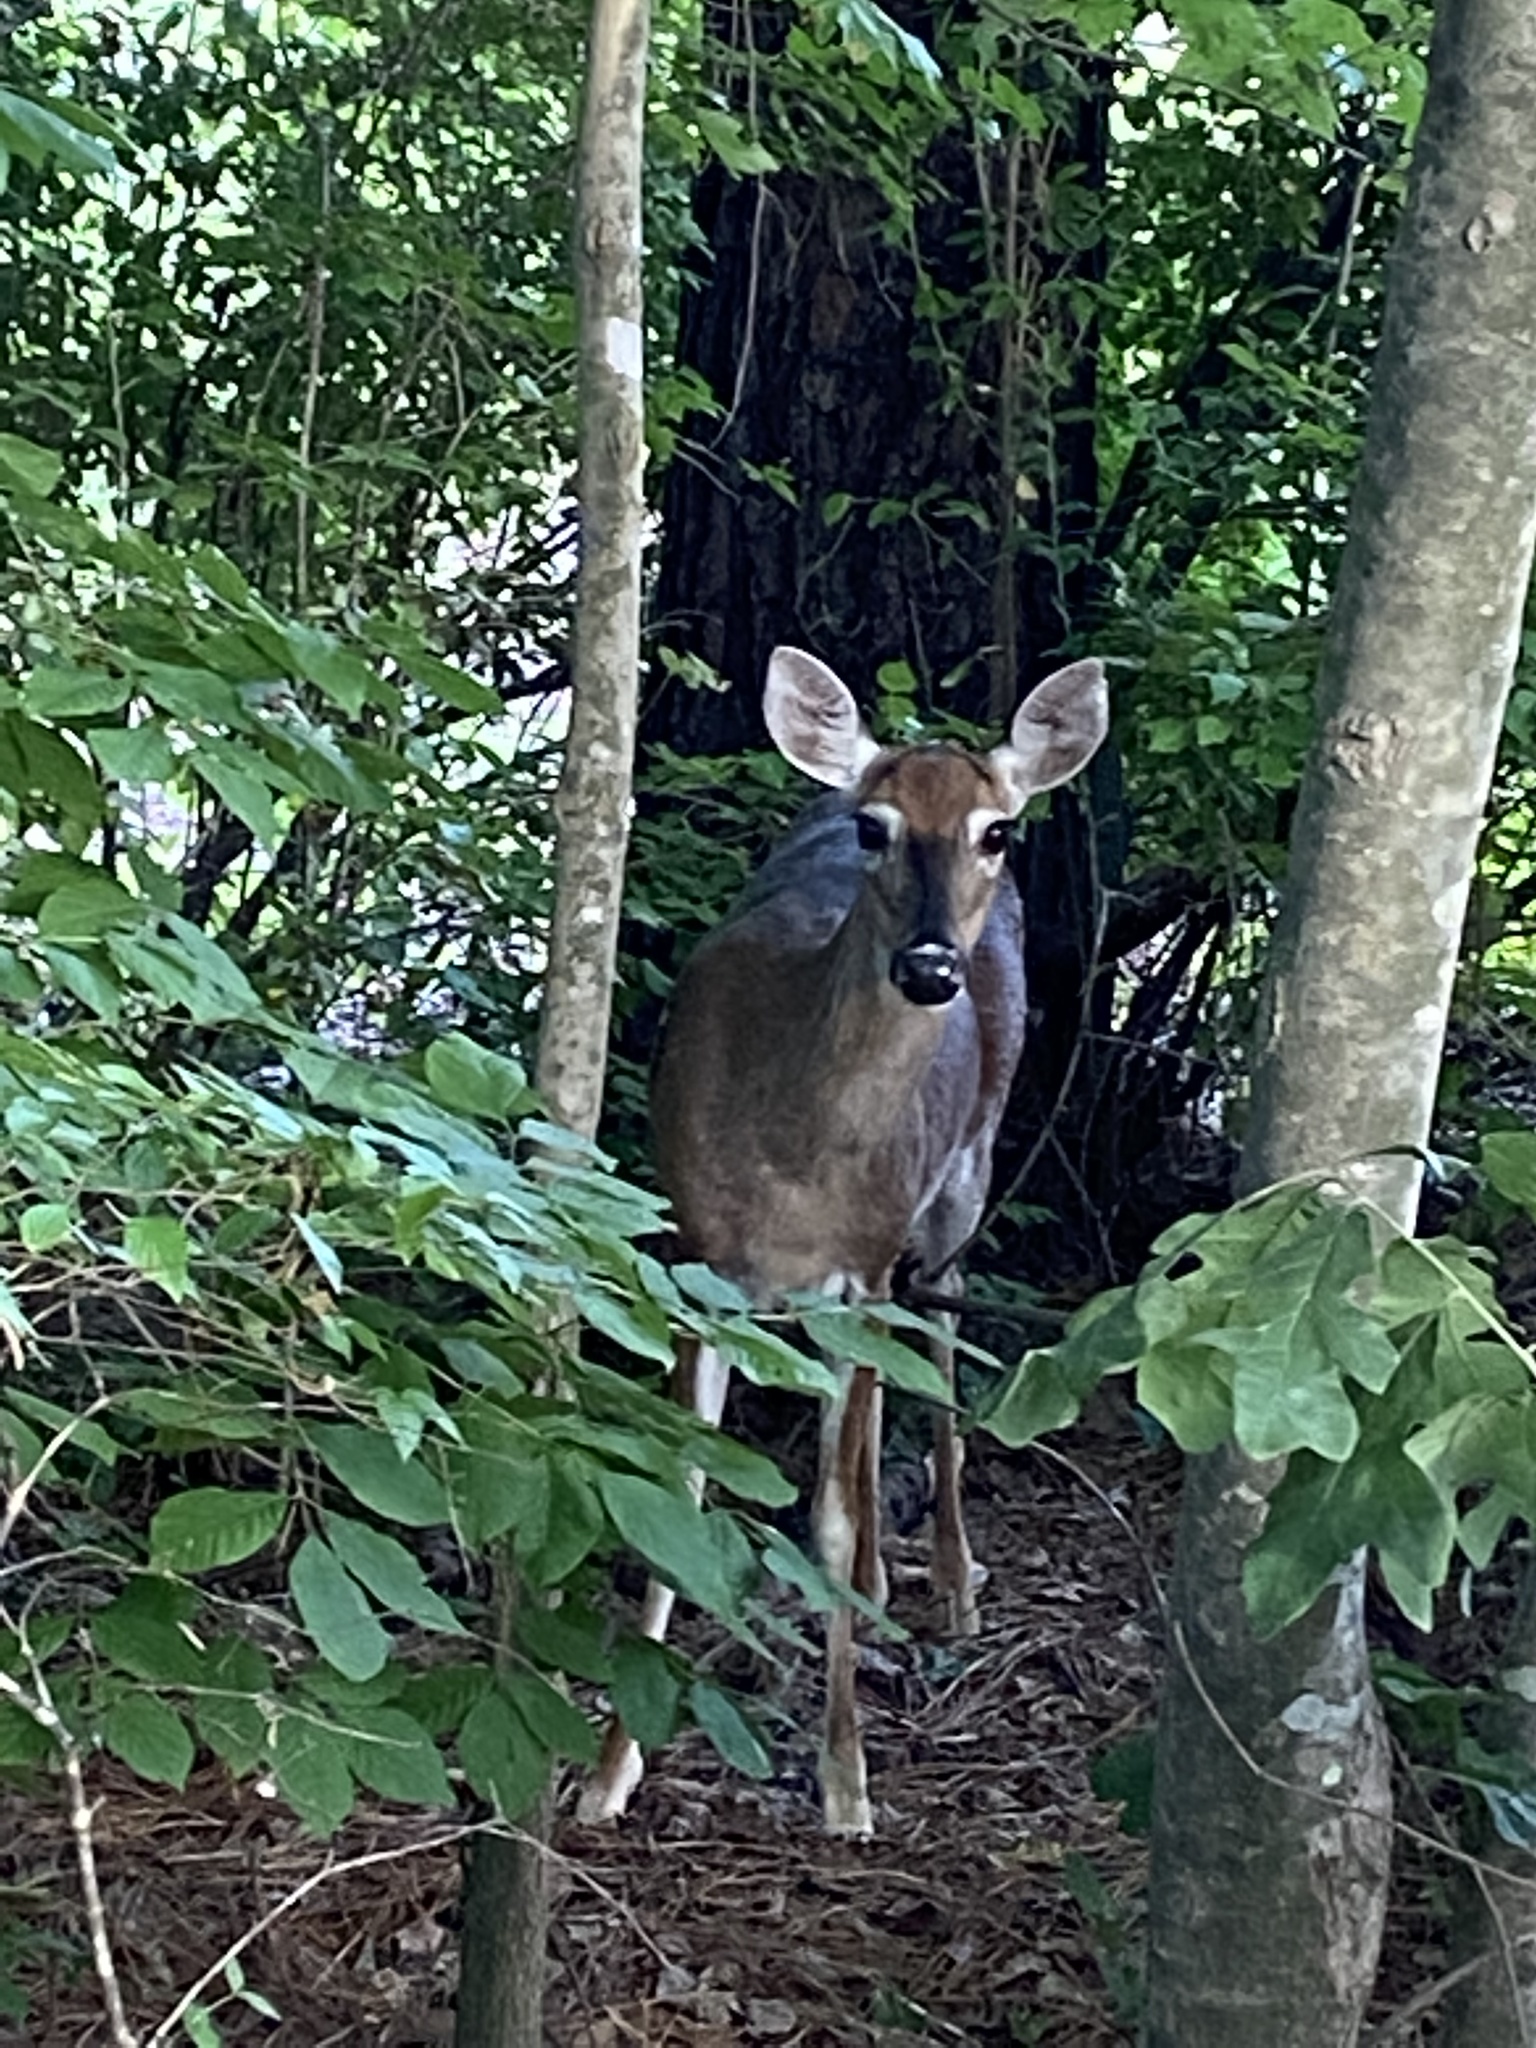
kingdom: Animalia
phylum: Chordata
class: Mammalia
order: Artiodactyla
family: Cervidae
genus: Odocoileus
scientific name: Odocoileus virginianus
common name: White-tailed deer
